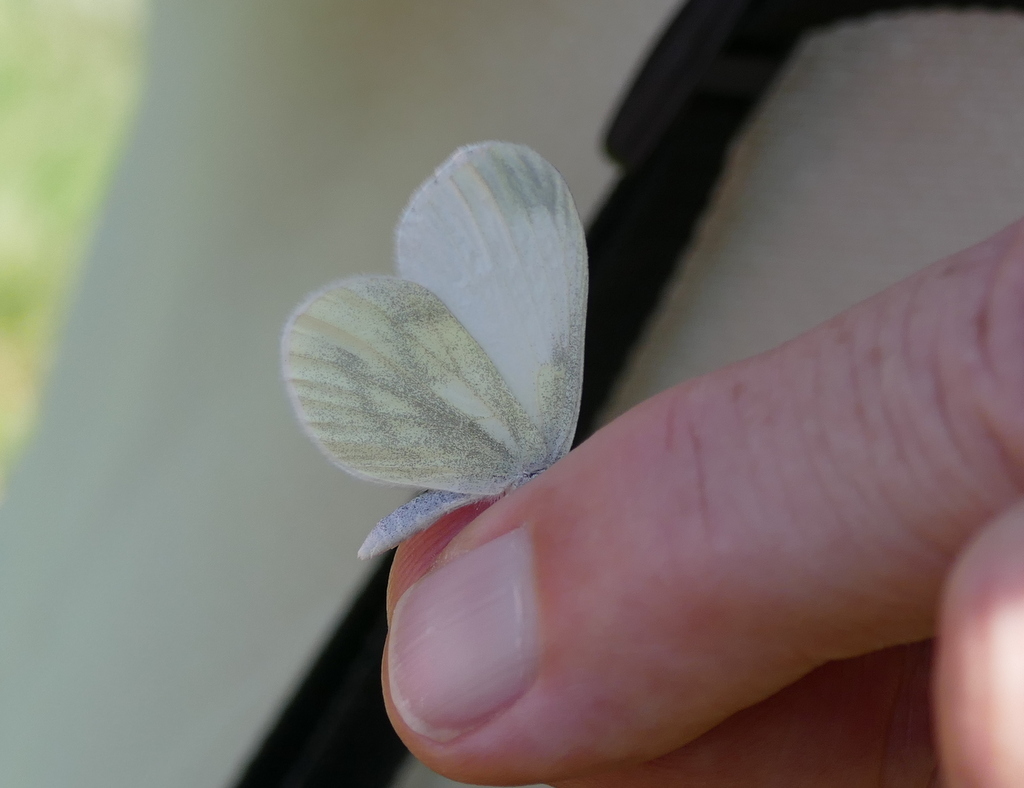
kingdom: Animalia
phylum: Arthropoda
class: Insecta
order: Lepidoptera
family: Pieridae
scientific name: Pieridae
